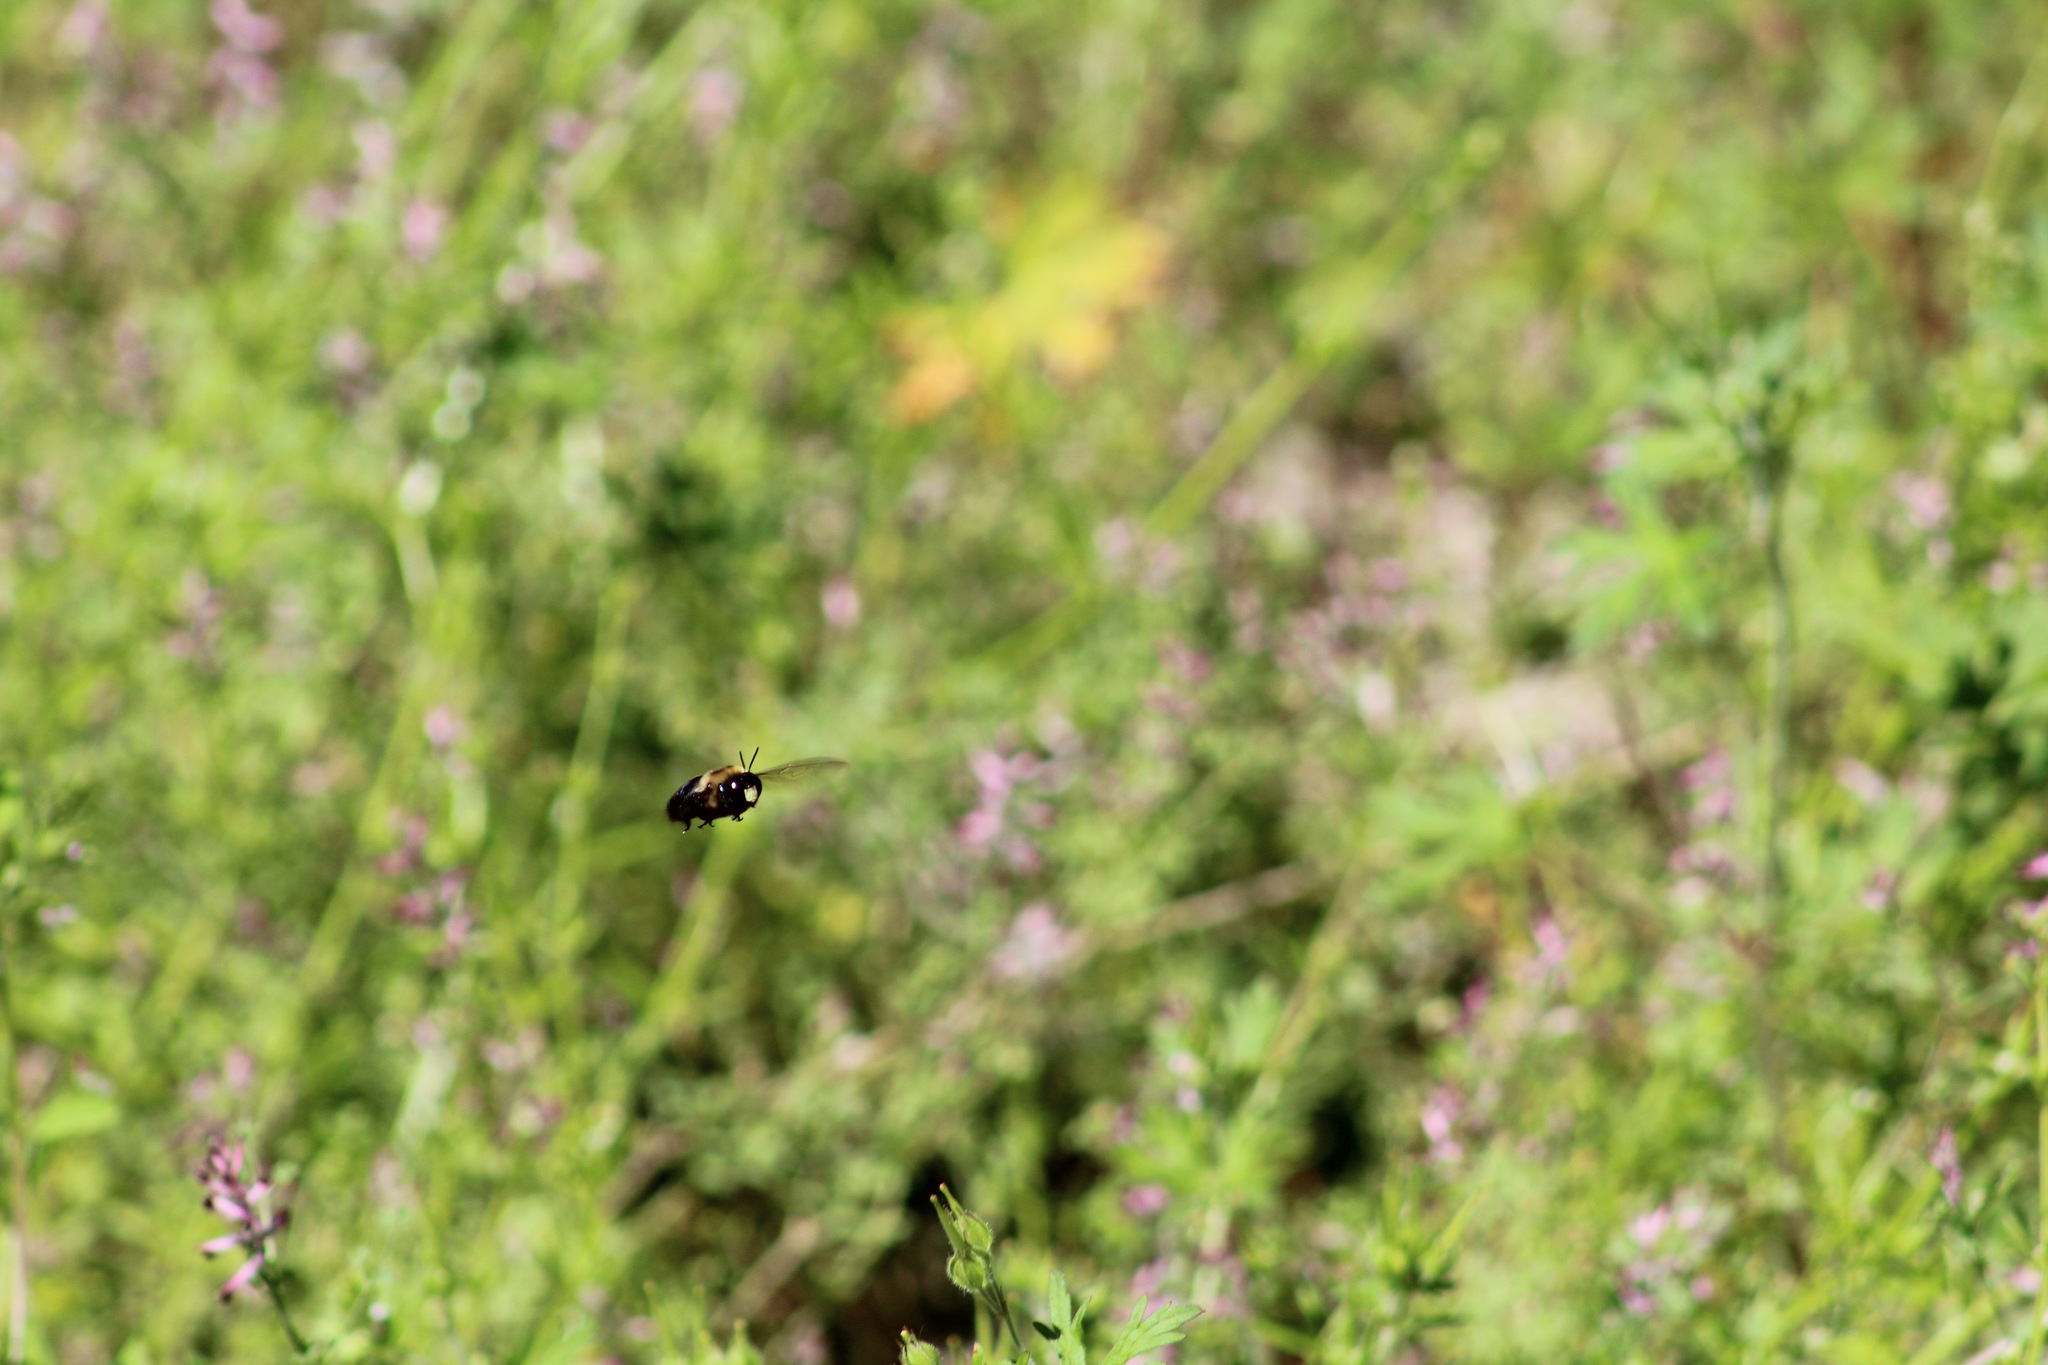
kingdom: Animalia
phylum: Arthropoda
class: Insecta
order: Hymenoptera
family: Apidae
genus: Xylocopa
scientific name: Xylocopa virginica
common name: Carpenter bee
